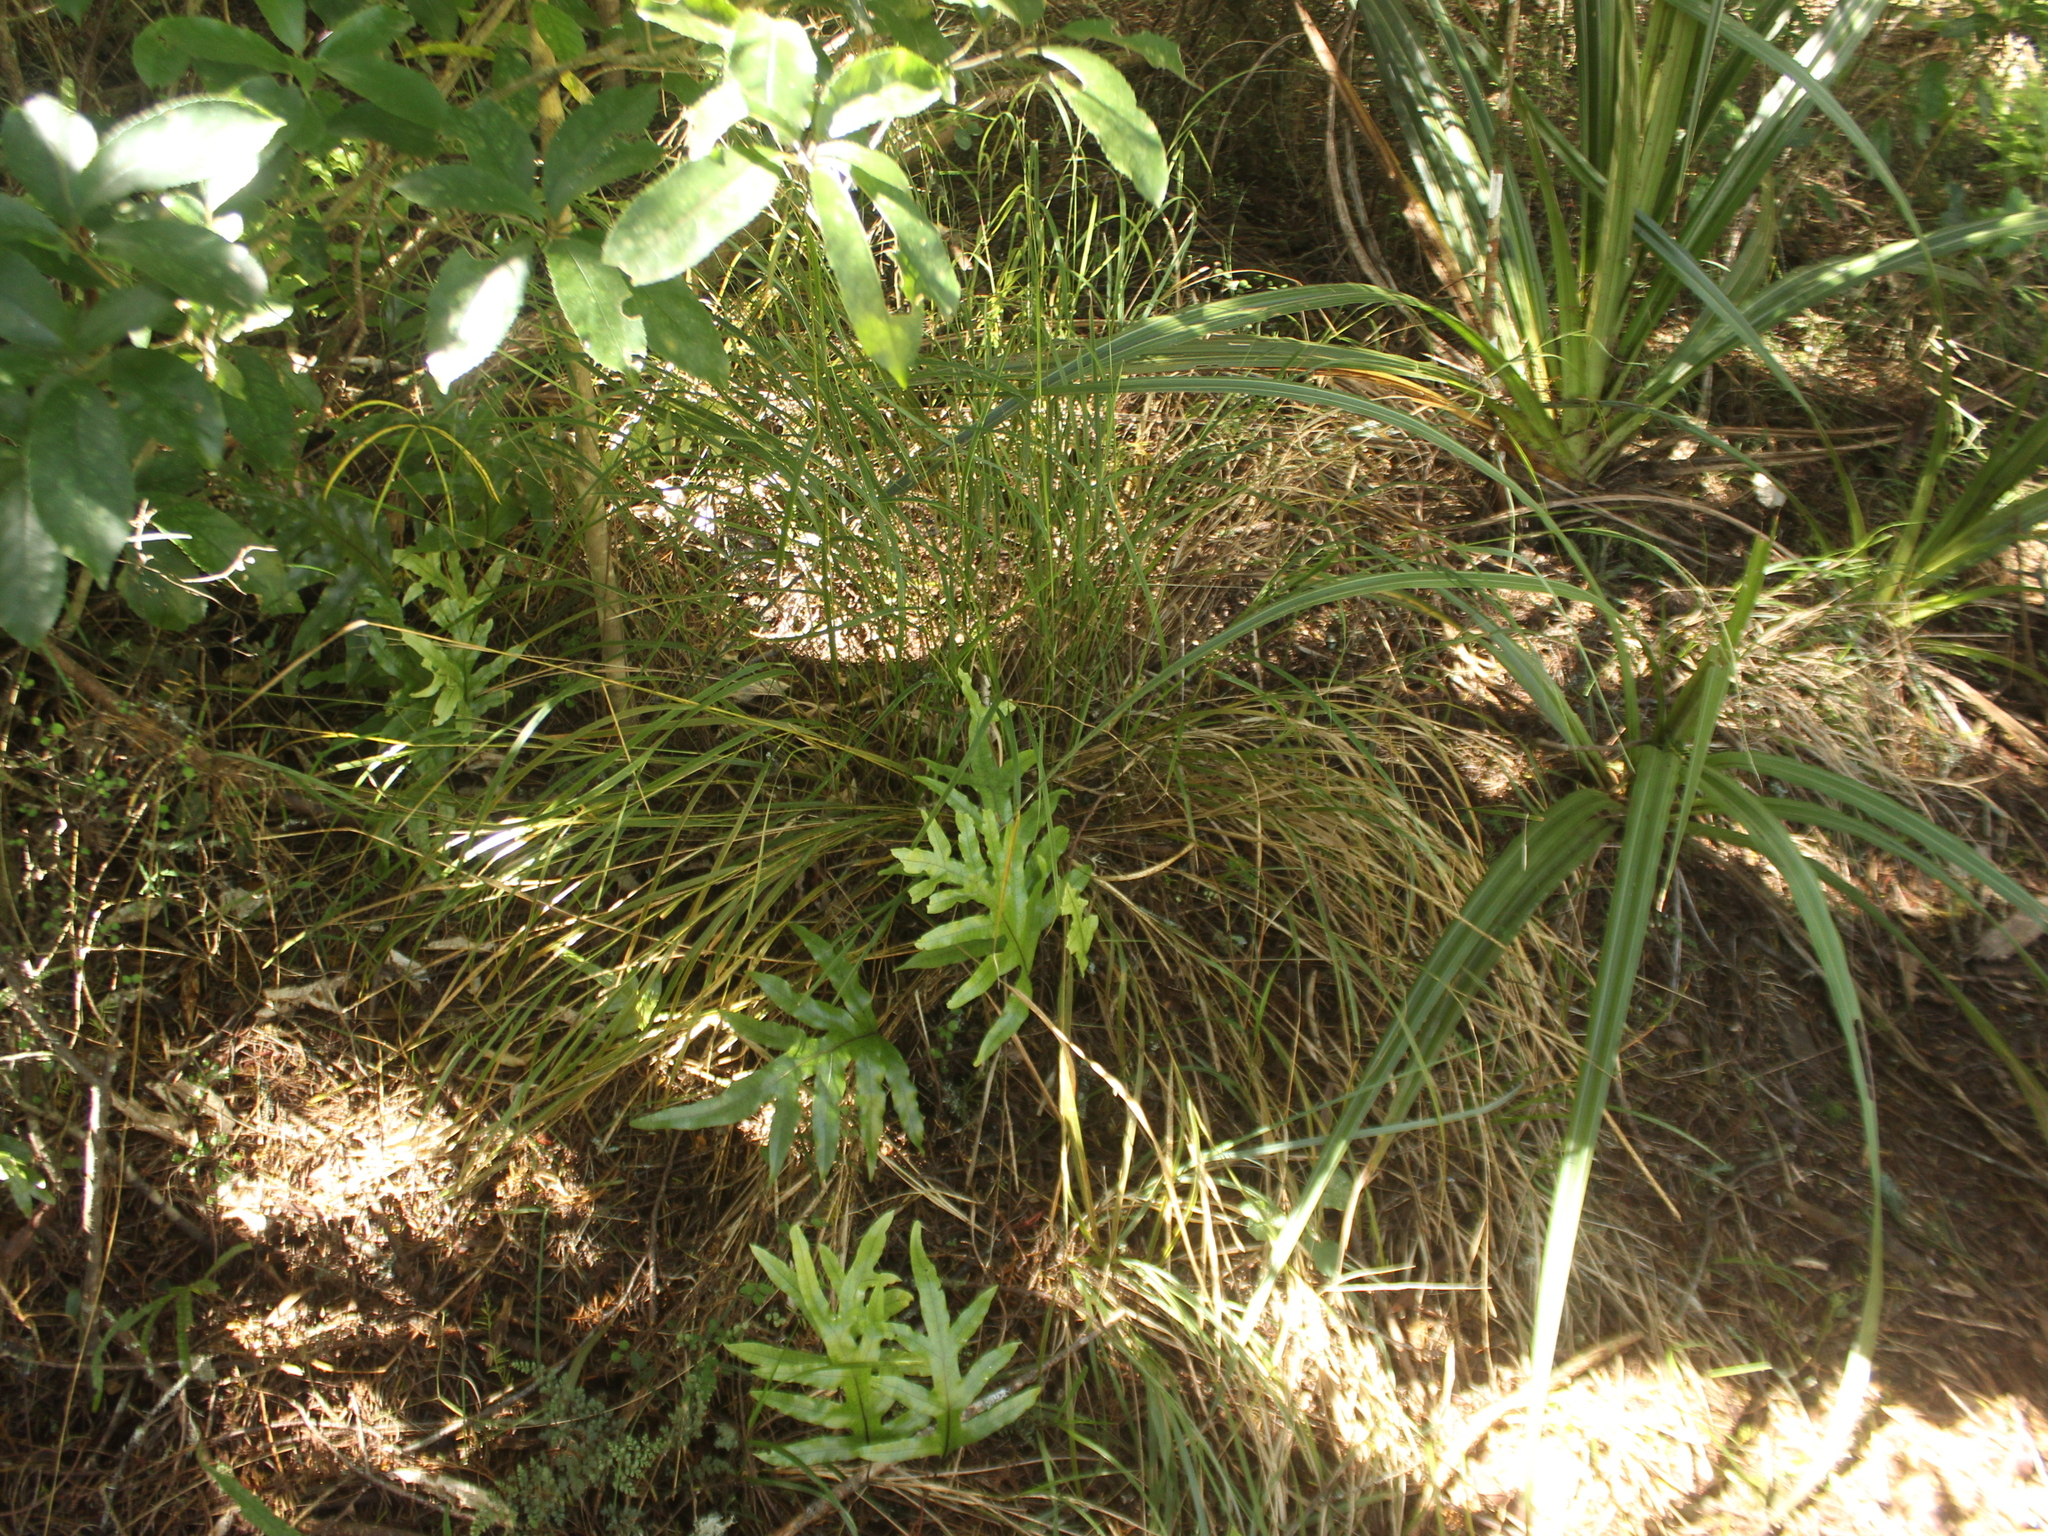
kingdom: Plantae
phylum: Tracheophyta
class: Liliopsida
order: Poales
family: Poaceae
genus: Anemanthele
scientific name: Anemanthele lessoniana
